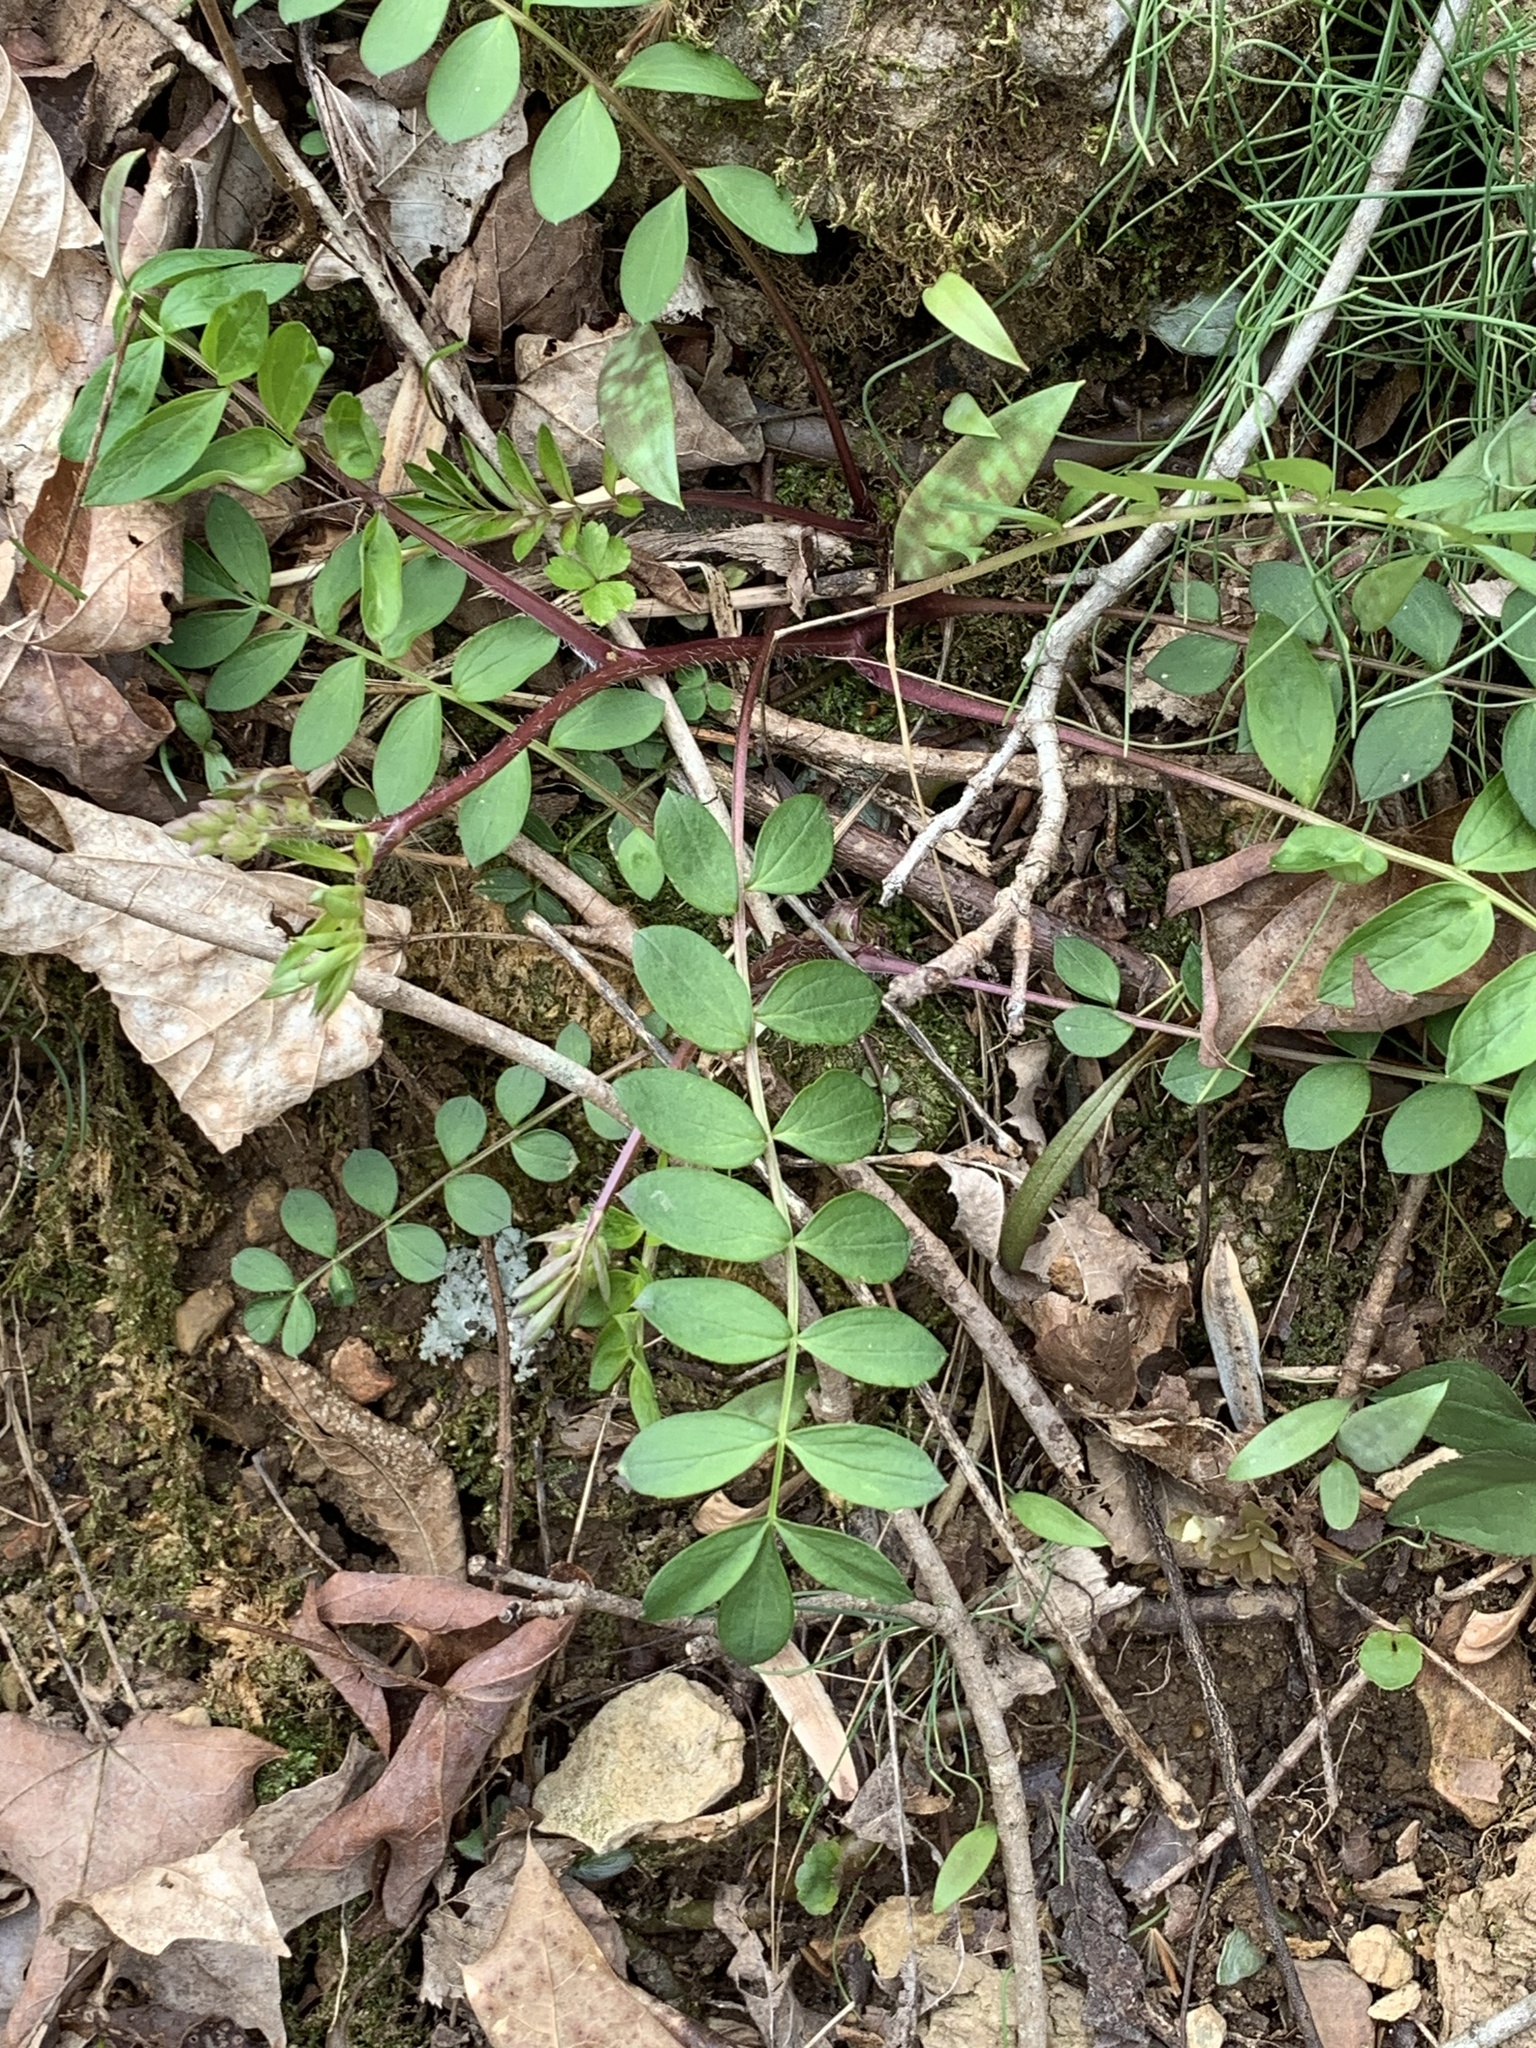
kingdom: Plantae
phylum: Tracheophyta
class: Magnoliopsida
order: Ericales
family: Polemoniaceae
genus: Polemonium
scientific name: Polemonium reptans
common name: Creeping jacob's-ladder
